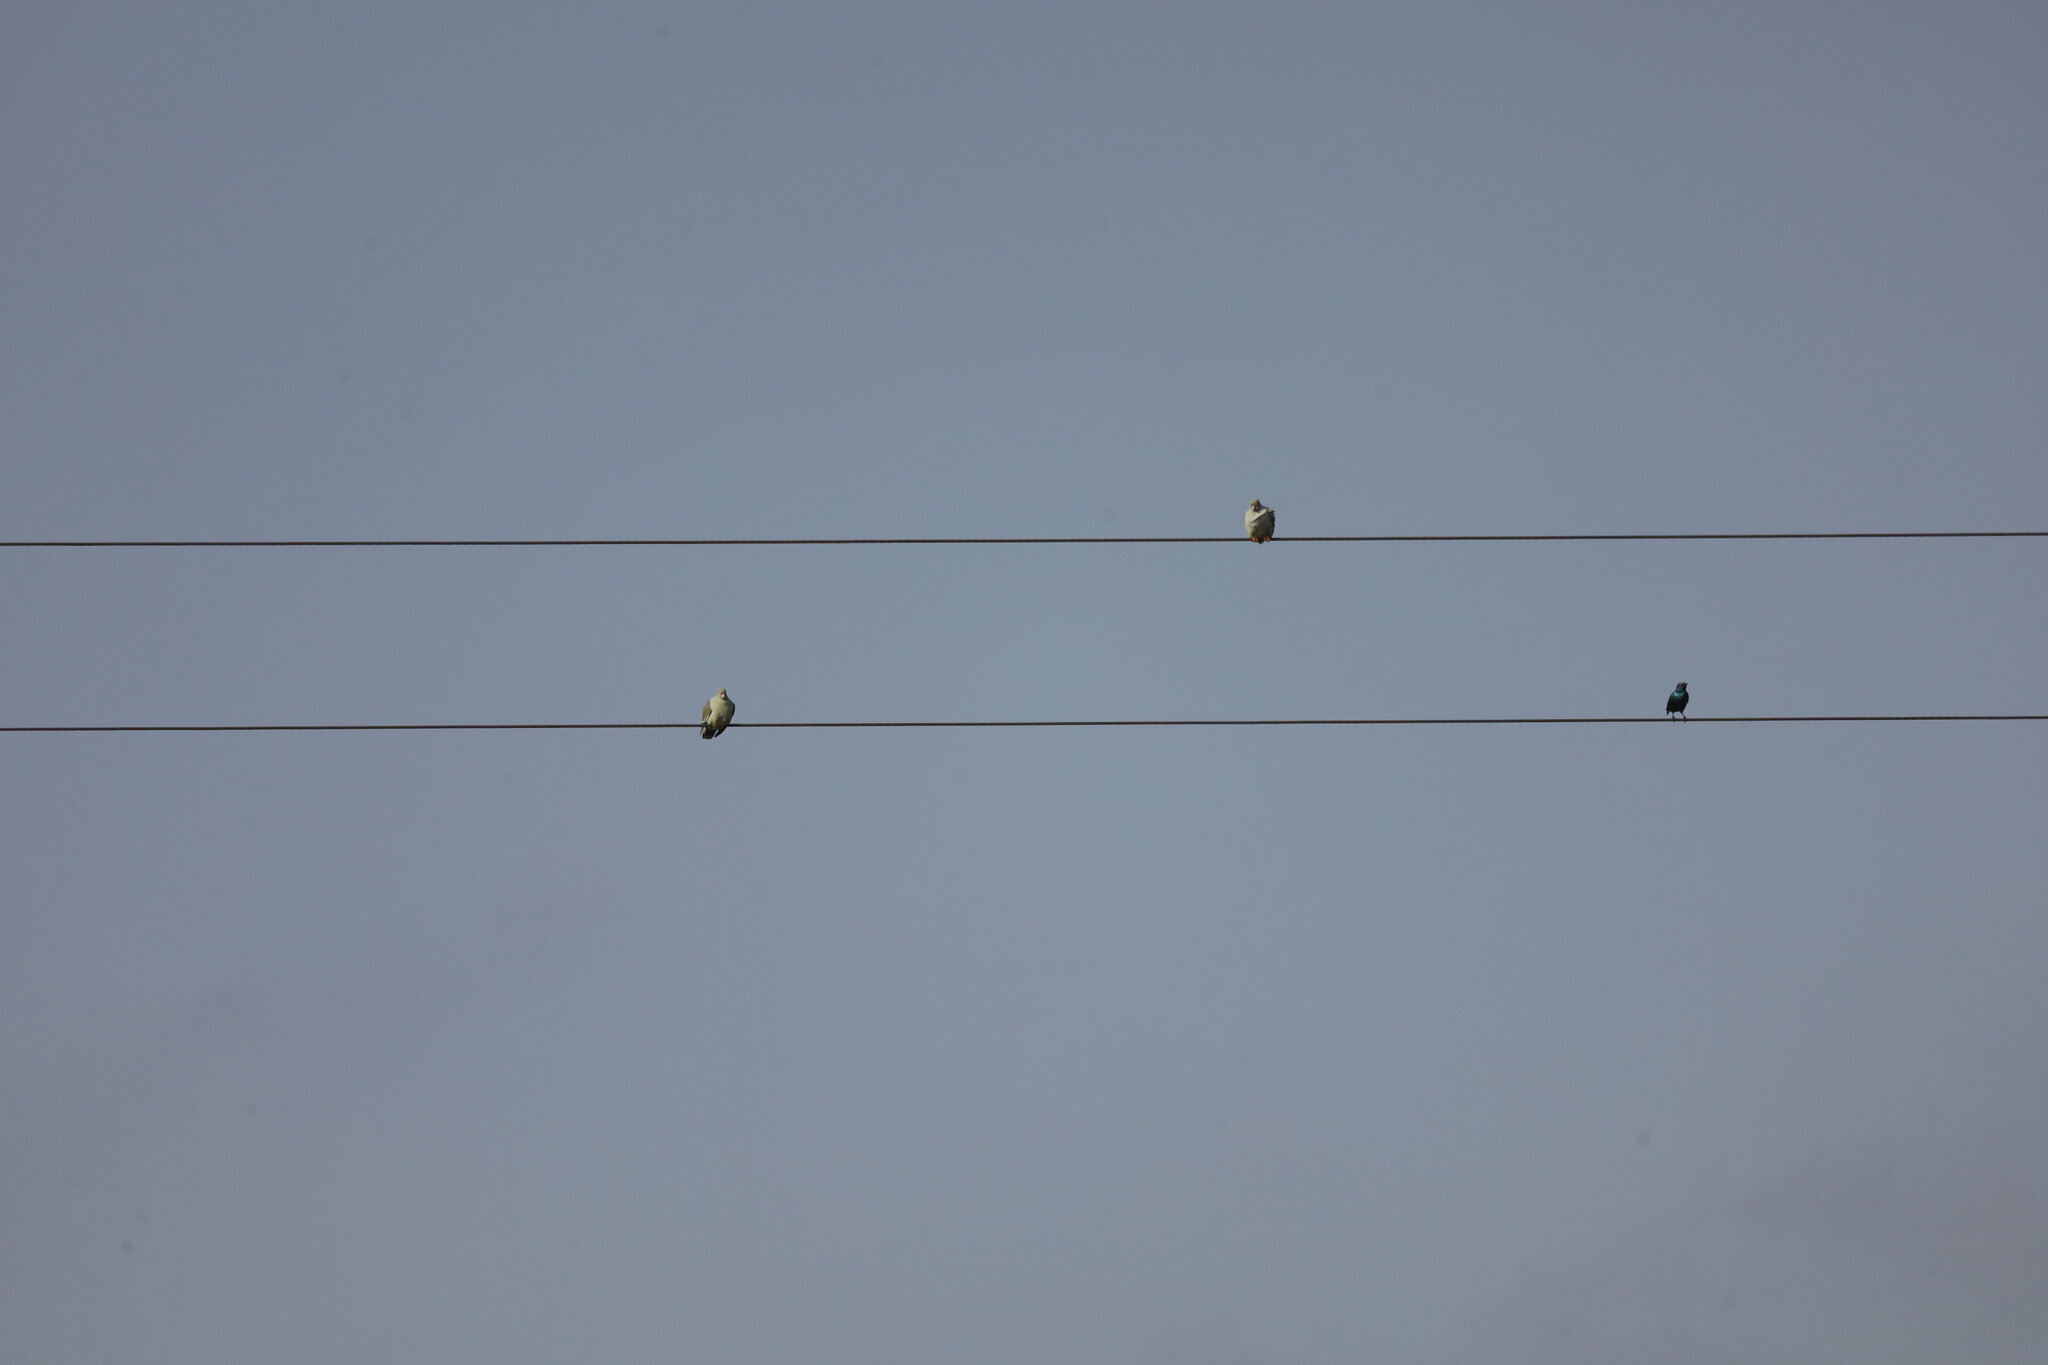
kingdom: Animalia
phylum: Chordata
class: Aves
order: Columbiformes
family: Columbidae
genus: Treron
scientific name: Treron calvus
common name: African green pigeon
